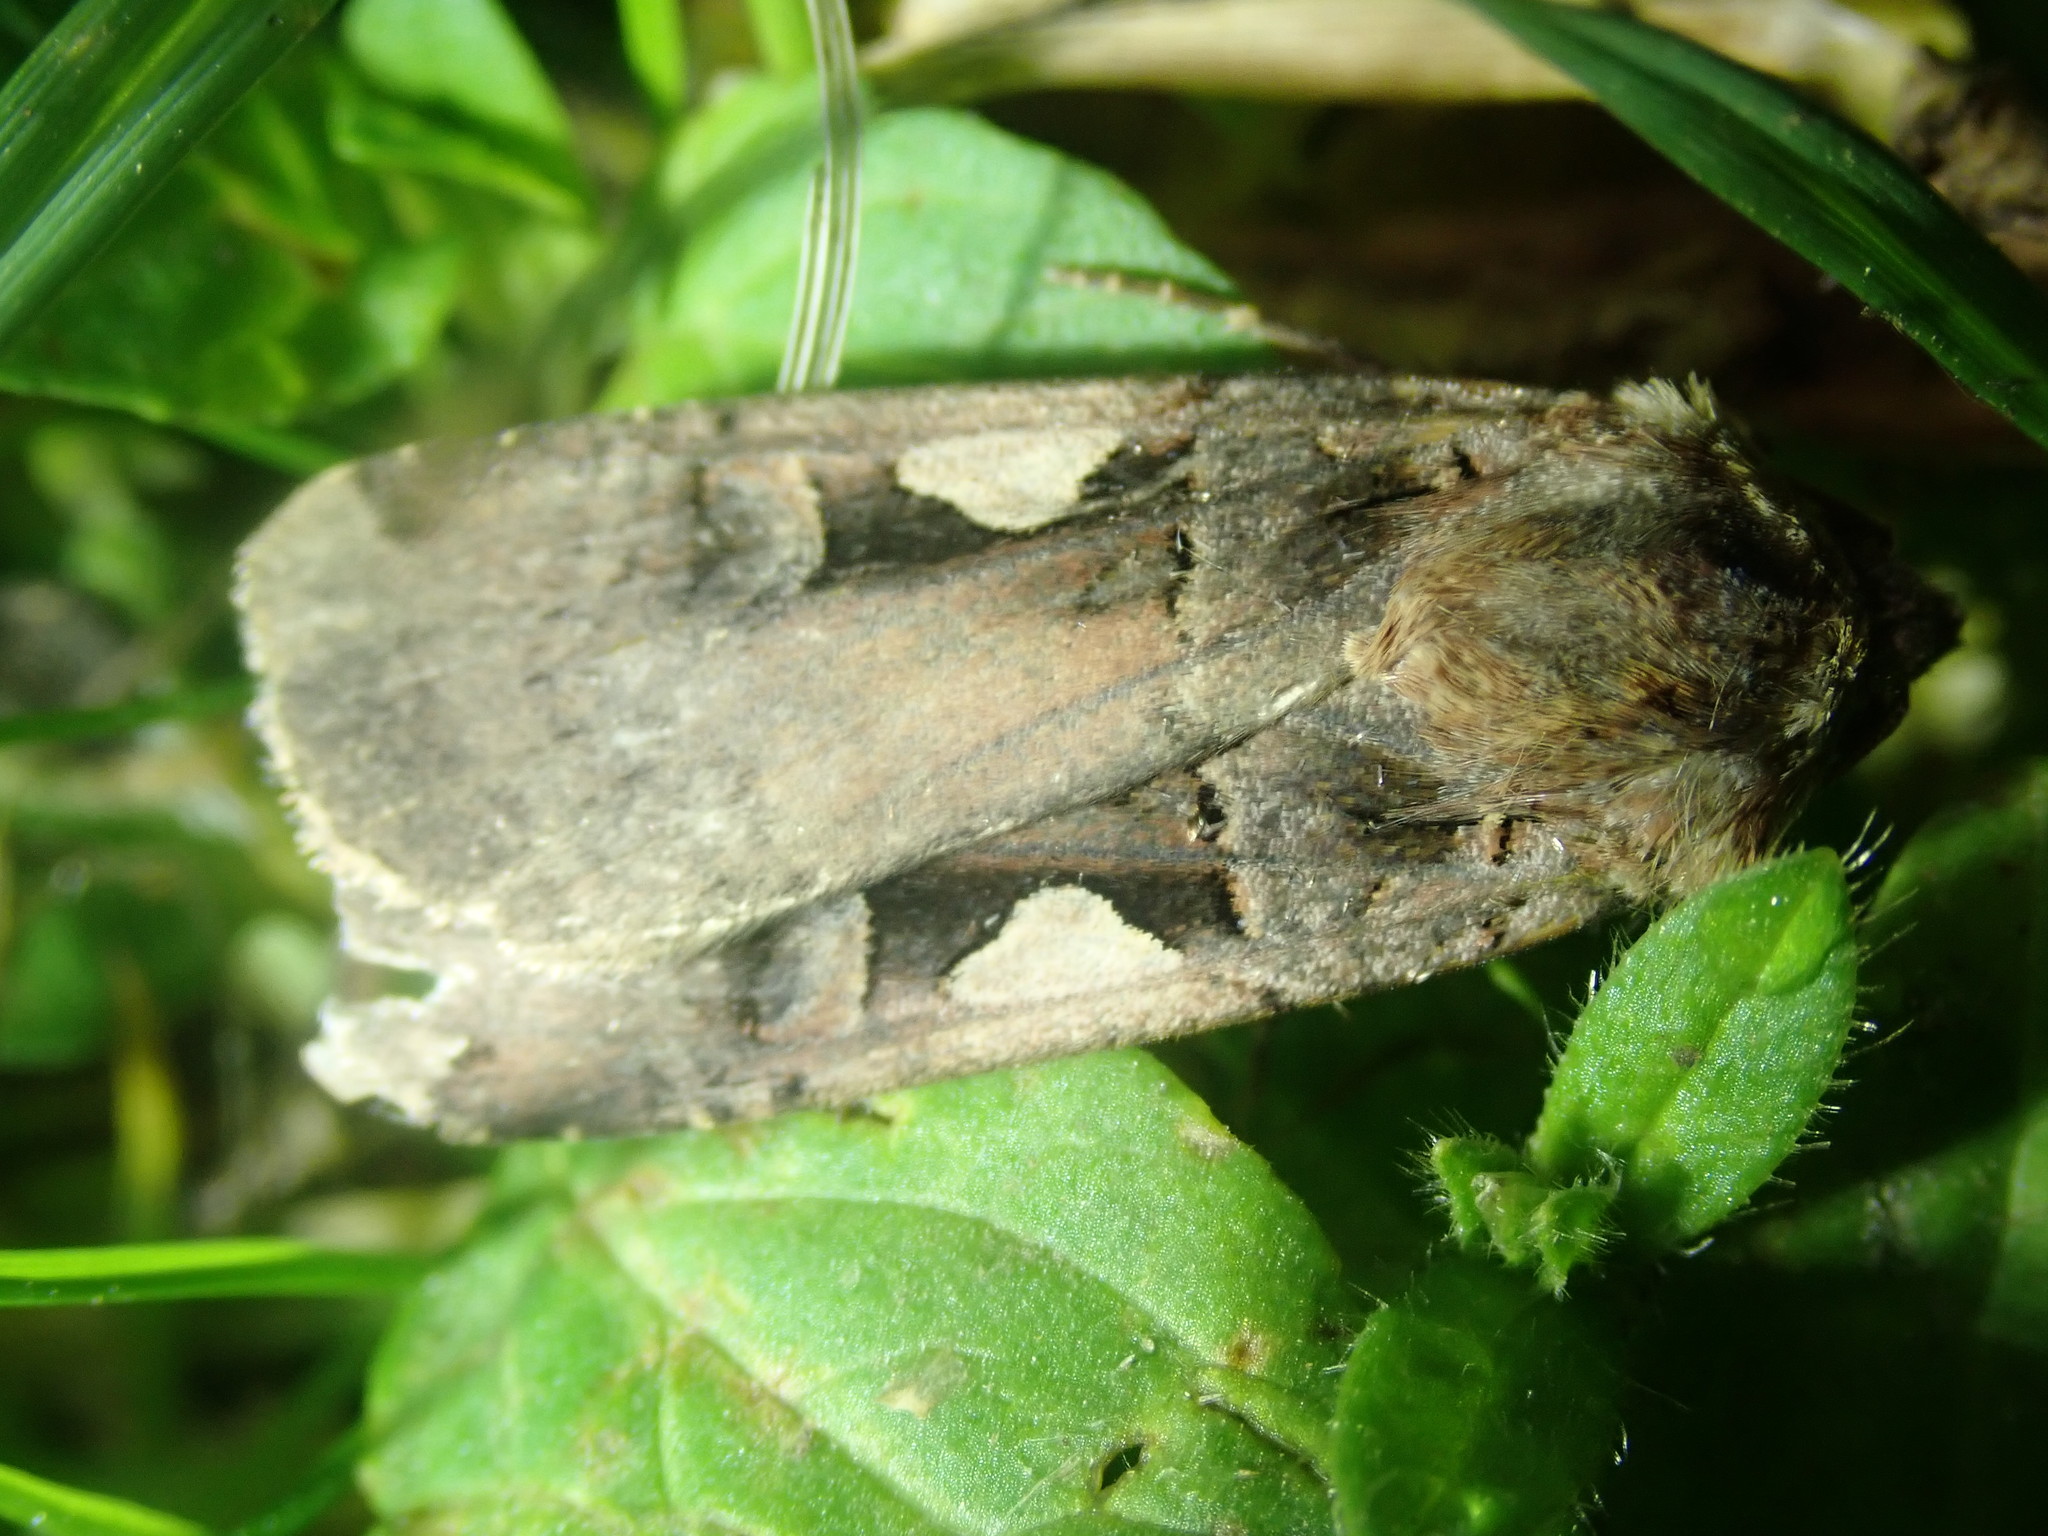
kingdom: Animalia
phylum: Arthropoda
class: Insecta
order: Lepidoptera
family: Noctuidae
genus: Xestia
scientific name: Xestia c-nigrum
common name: Setaceous hebrew character
